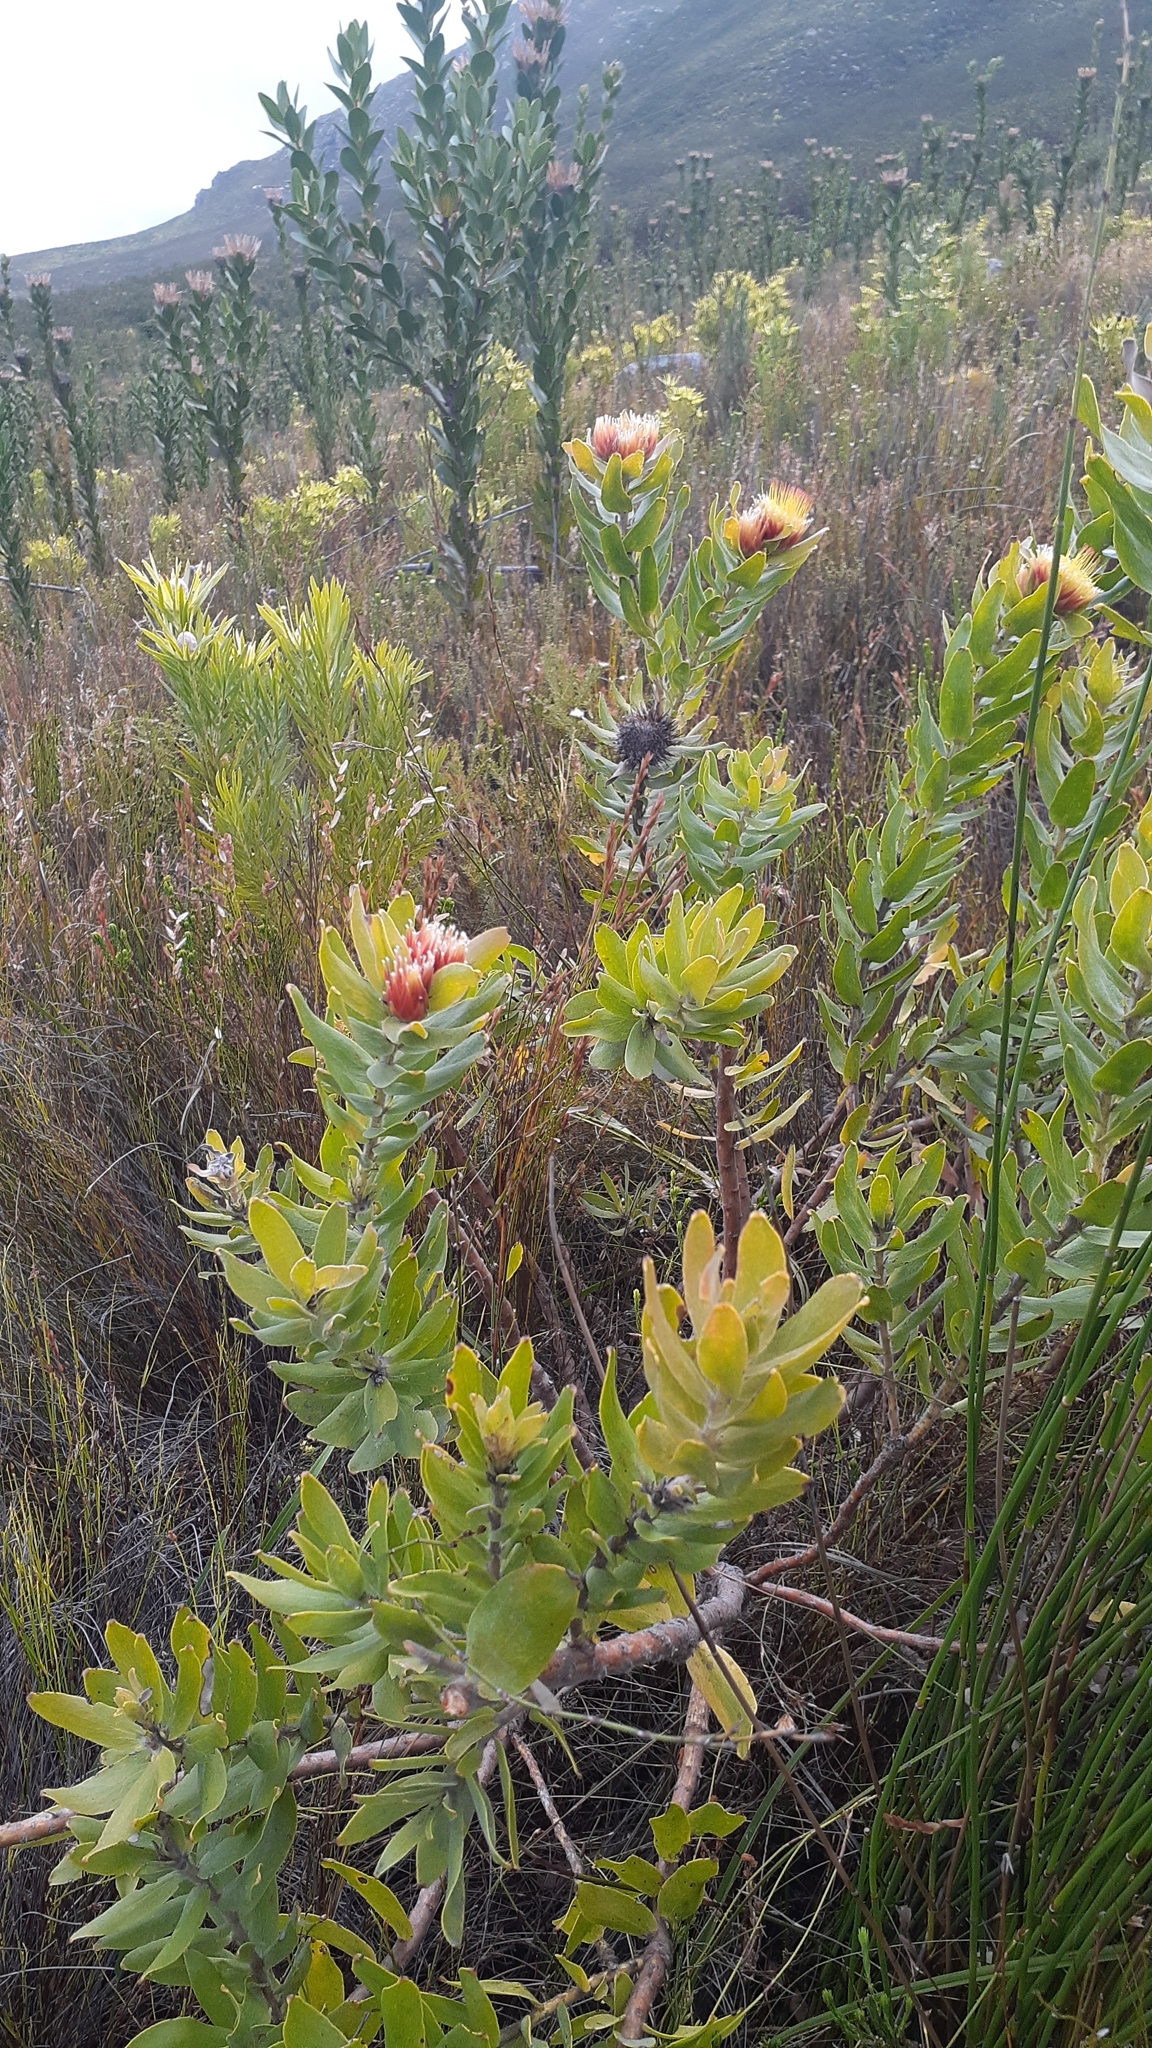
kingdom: Plantae
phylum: Tracheophyta
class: Magnoliopsida
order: Proteales
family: Proteaceae
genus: Leucospermum
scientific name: Leucospermum oleifolium
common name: Matches
